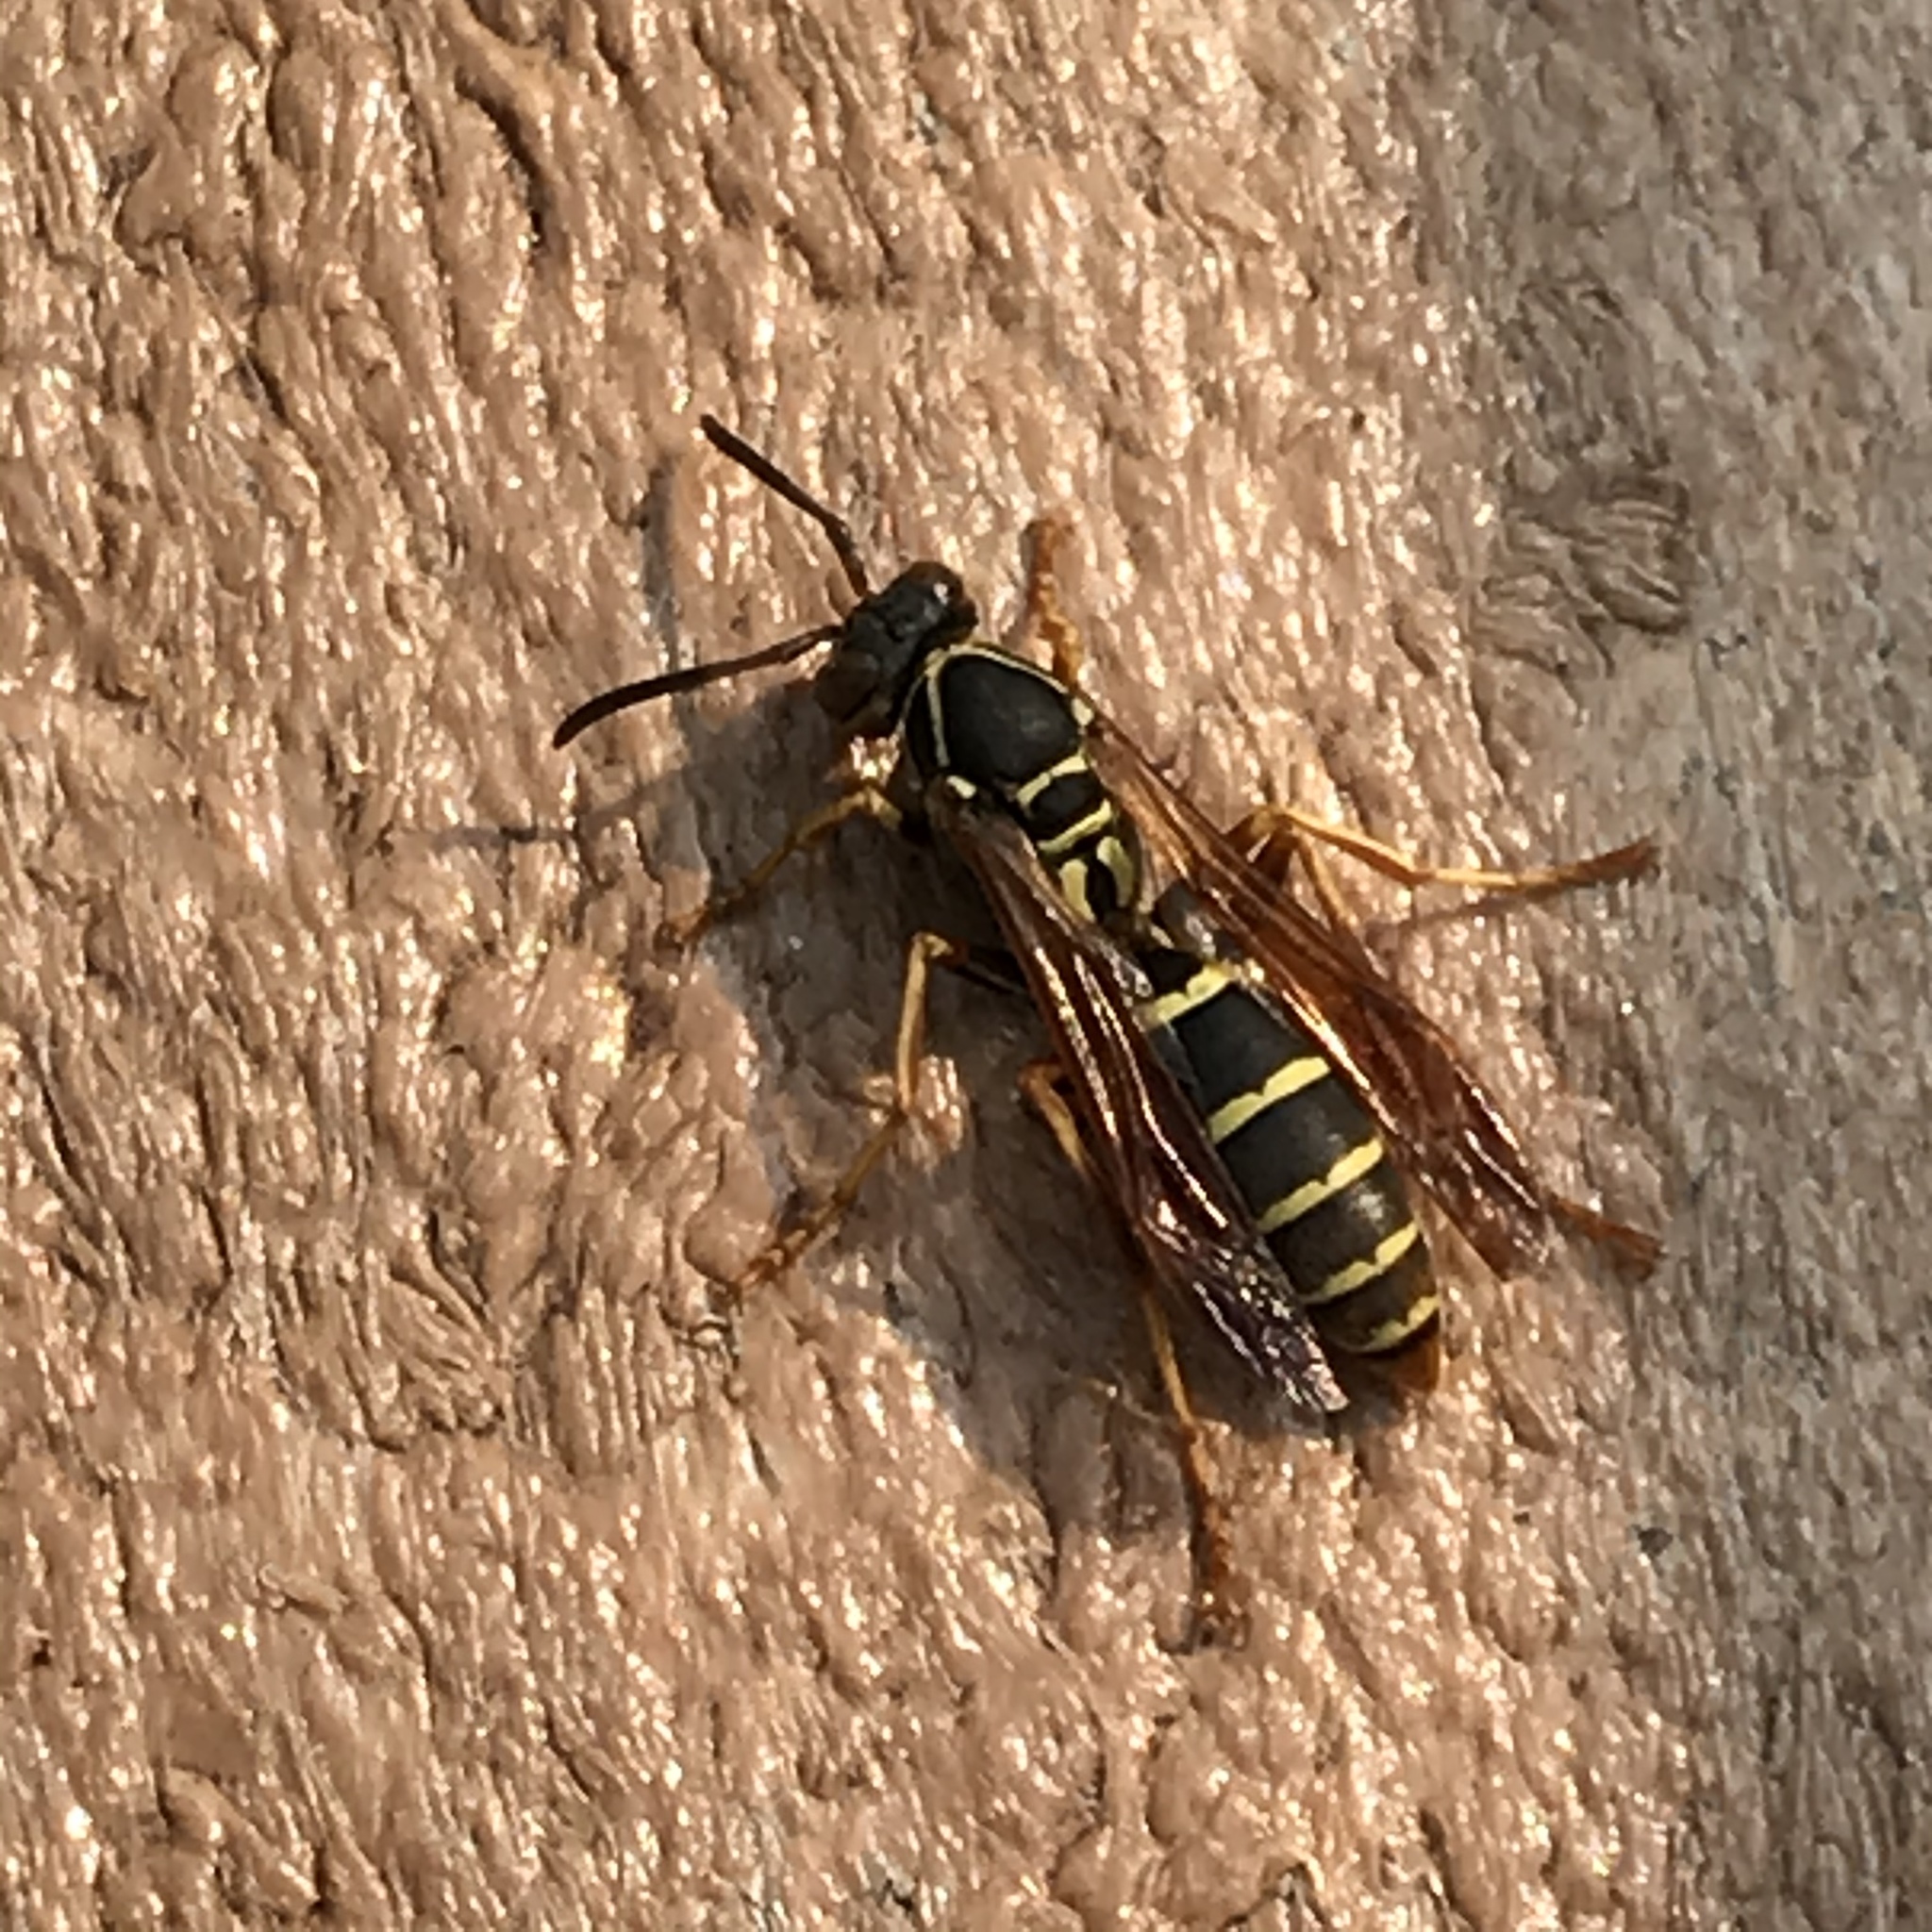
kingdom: Animalia
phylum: Arthropoda
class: Insecta
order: Hymenoptera
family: Eumenidae
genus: Polistes
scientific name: Polistes fuscatus
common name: Dark paper wasp
